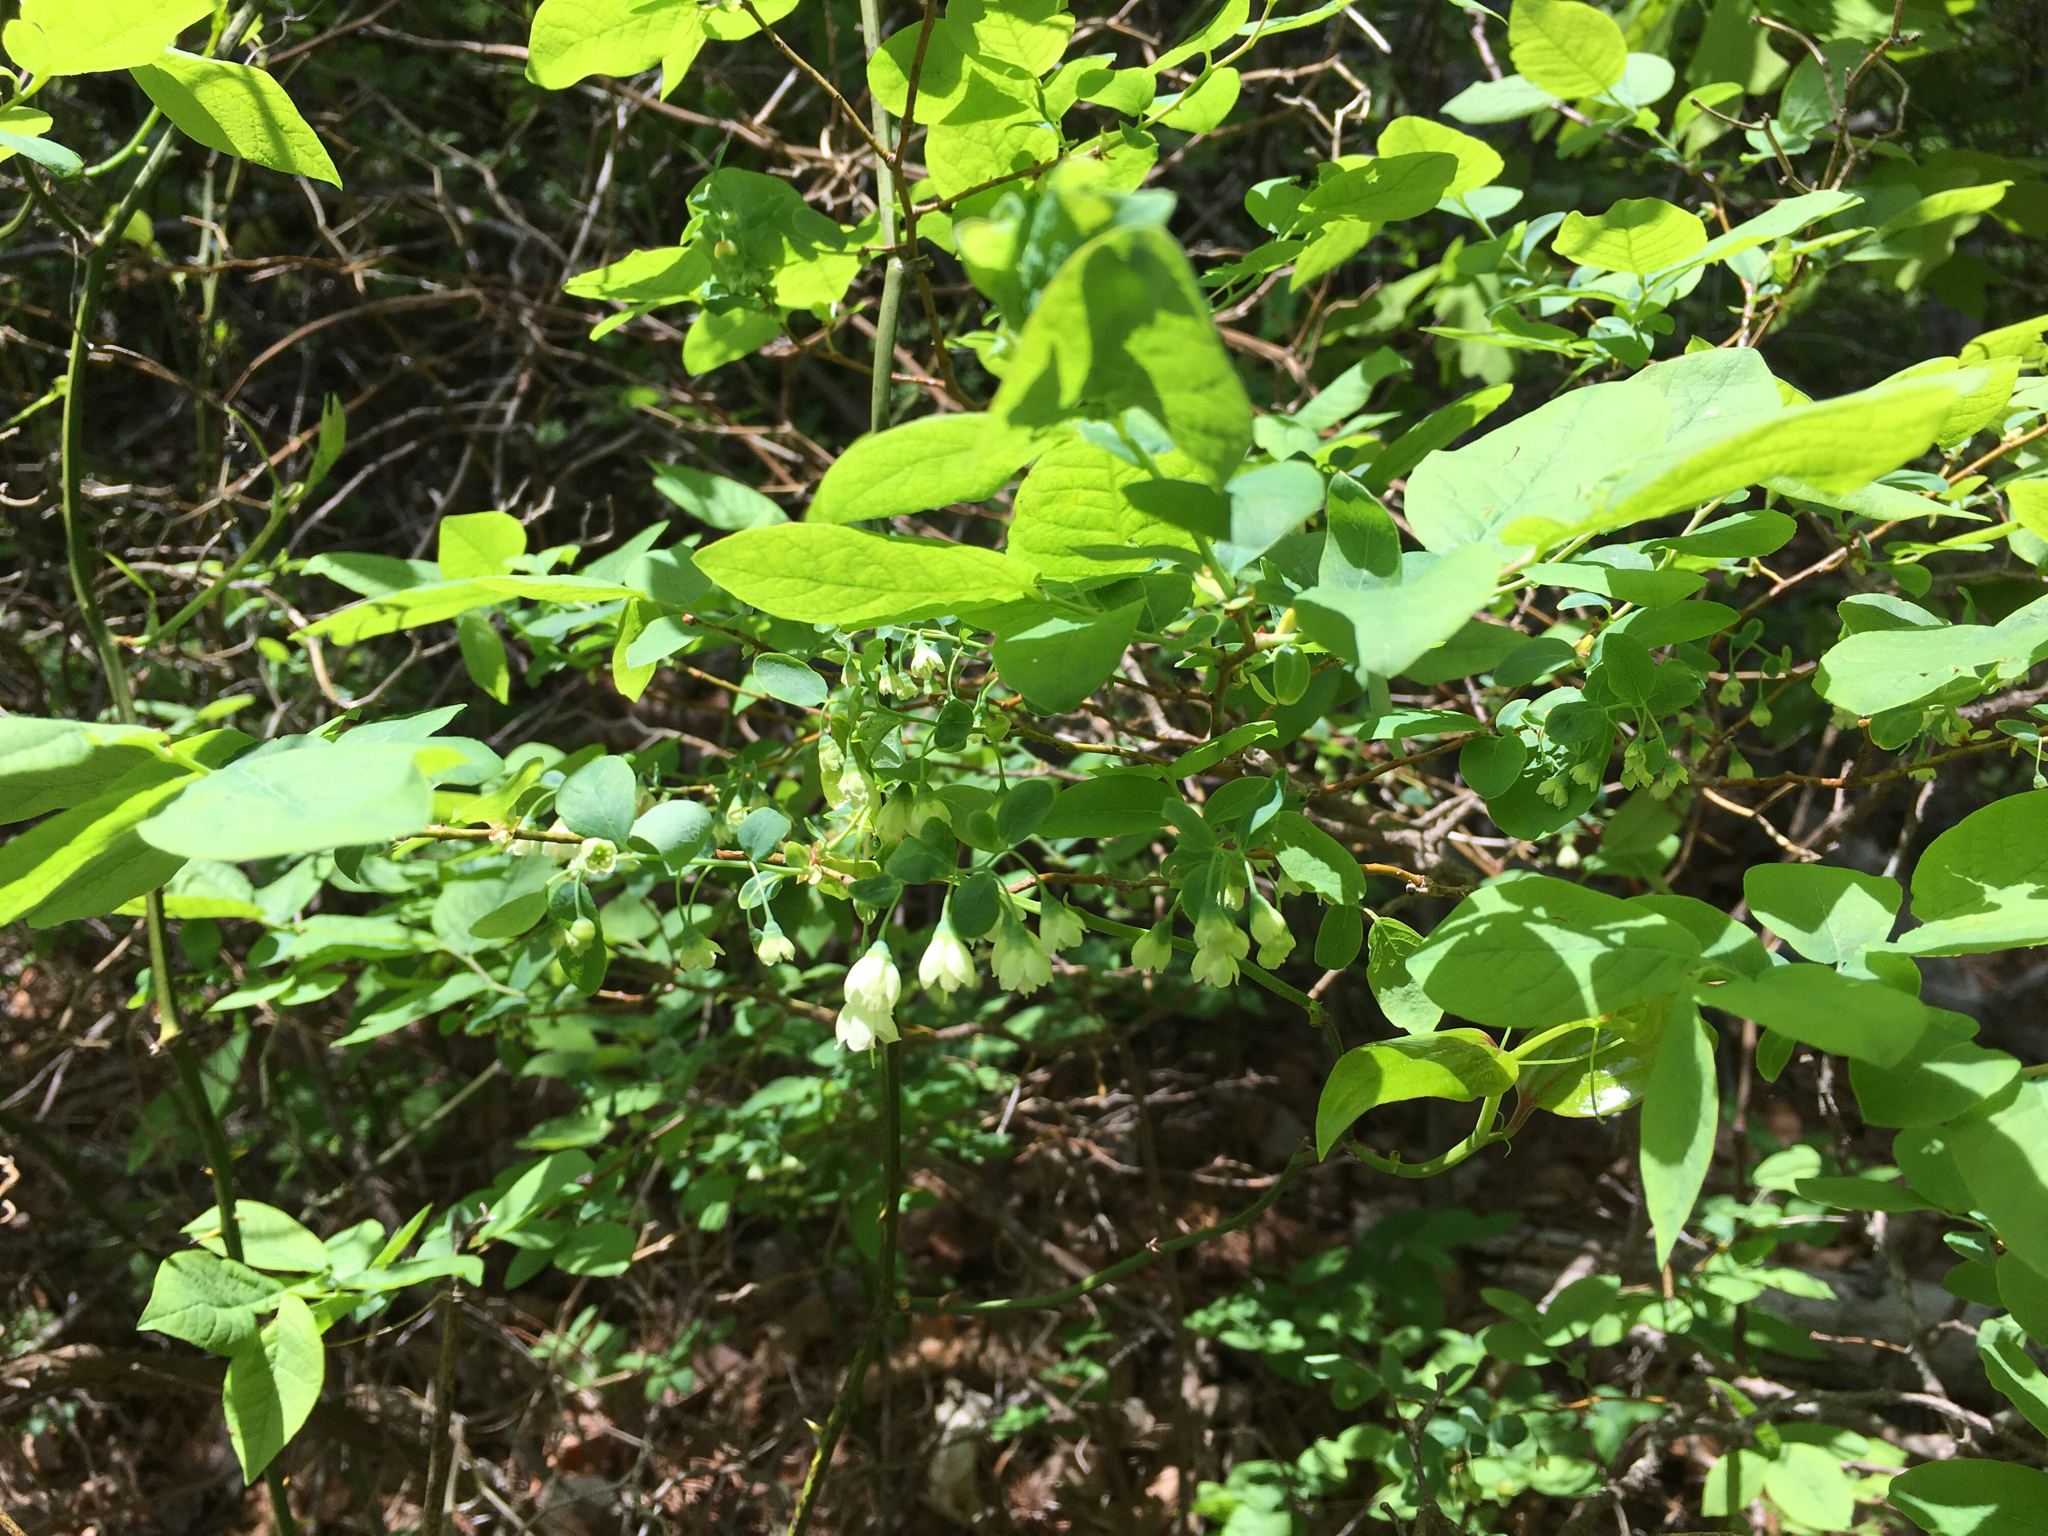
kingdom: Plantae
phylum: Tracheophyta
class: Magnoliopsida
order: Ericales
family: Ericaceae
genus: Vaccinium
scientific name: Vaccinium stamineum
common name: Deerberry
